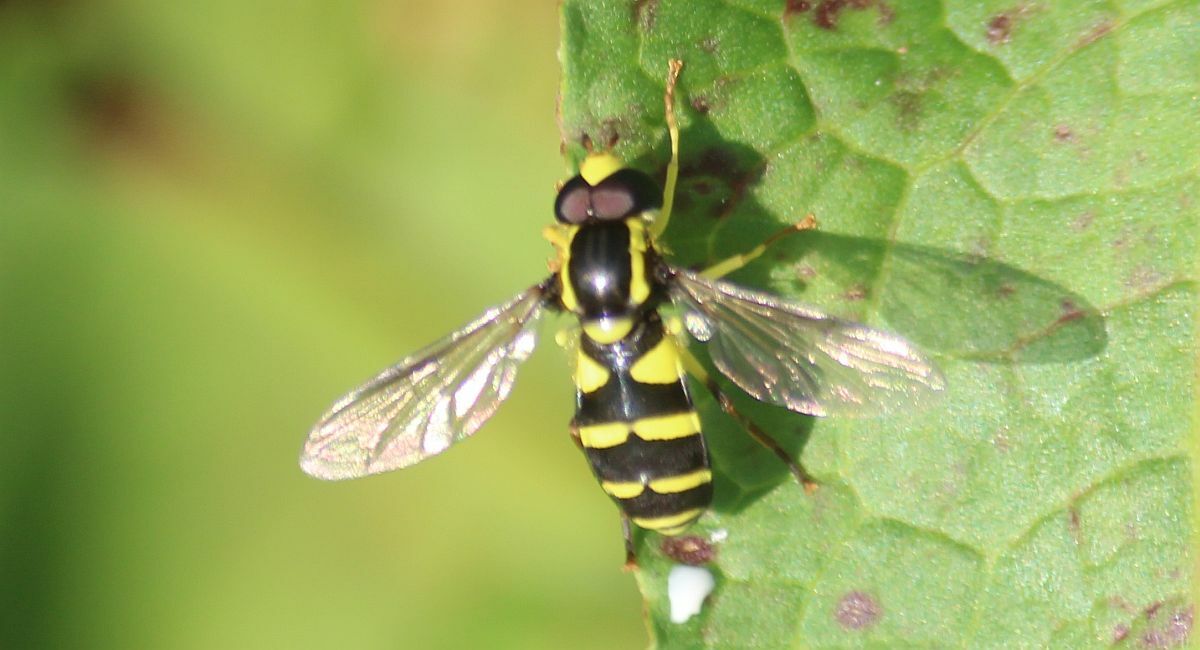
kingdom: Animalia
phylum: Arthropoda
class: Insecta
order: Diptera
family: Syrphidae
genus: Philhelius
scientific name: Philhelius pedissequum
